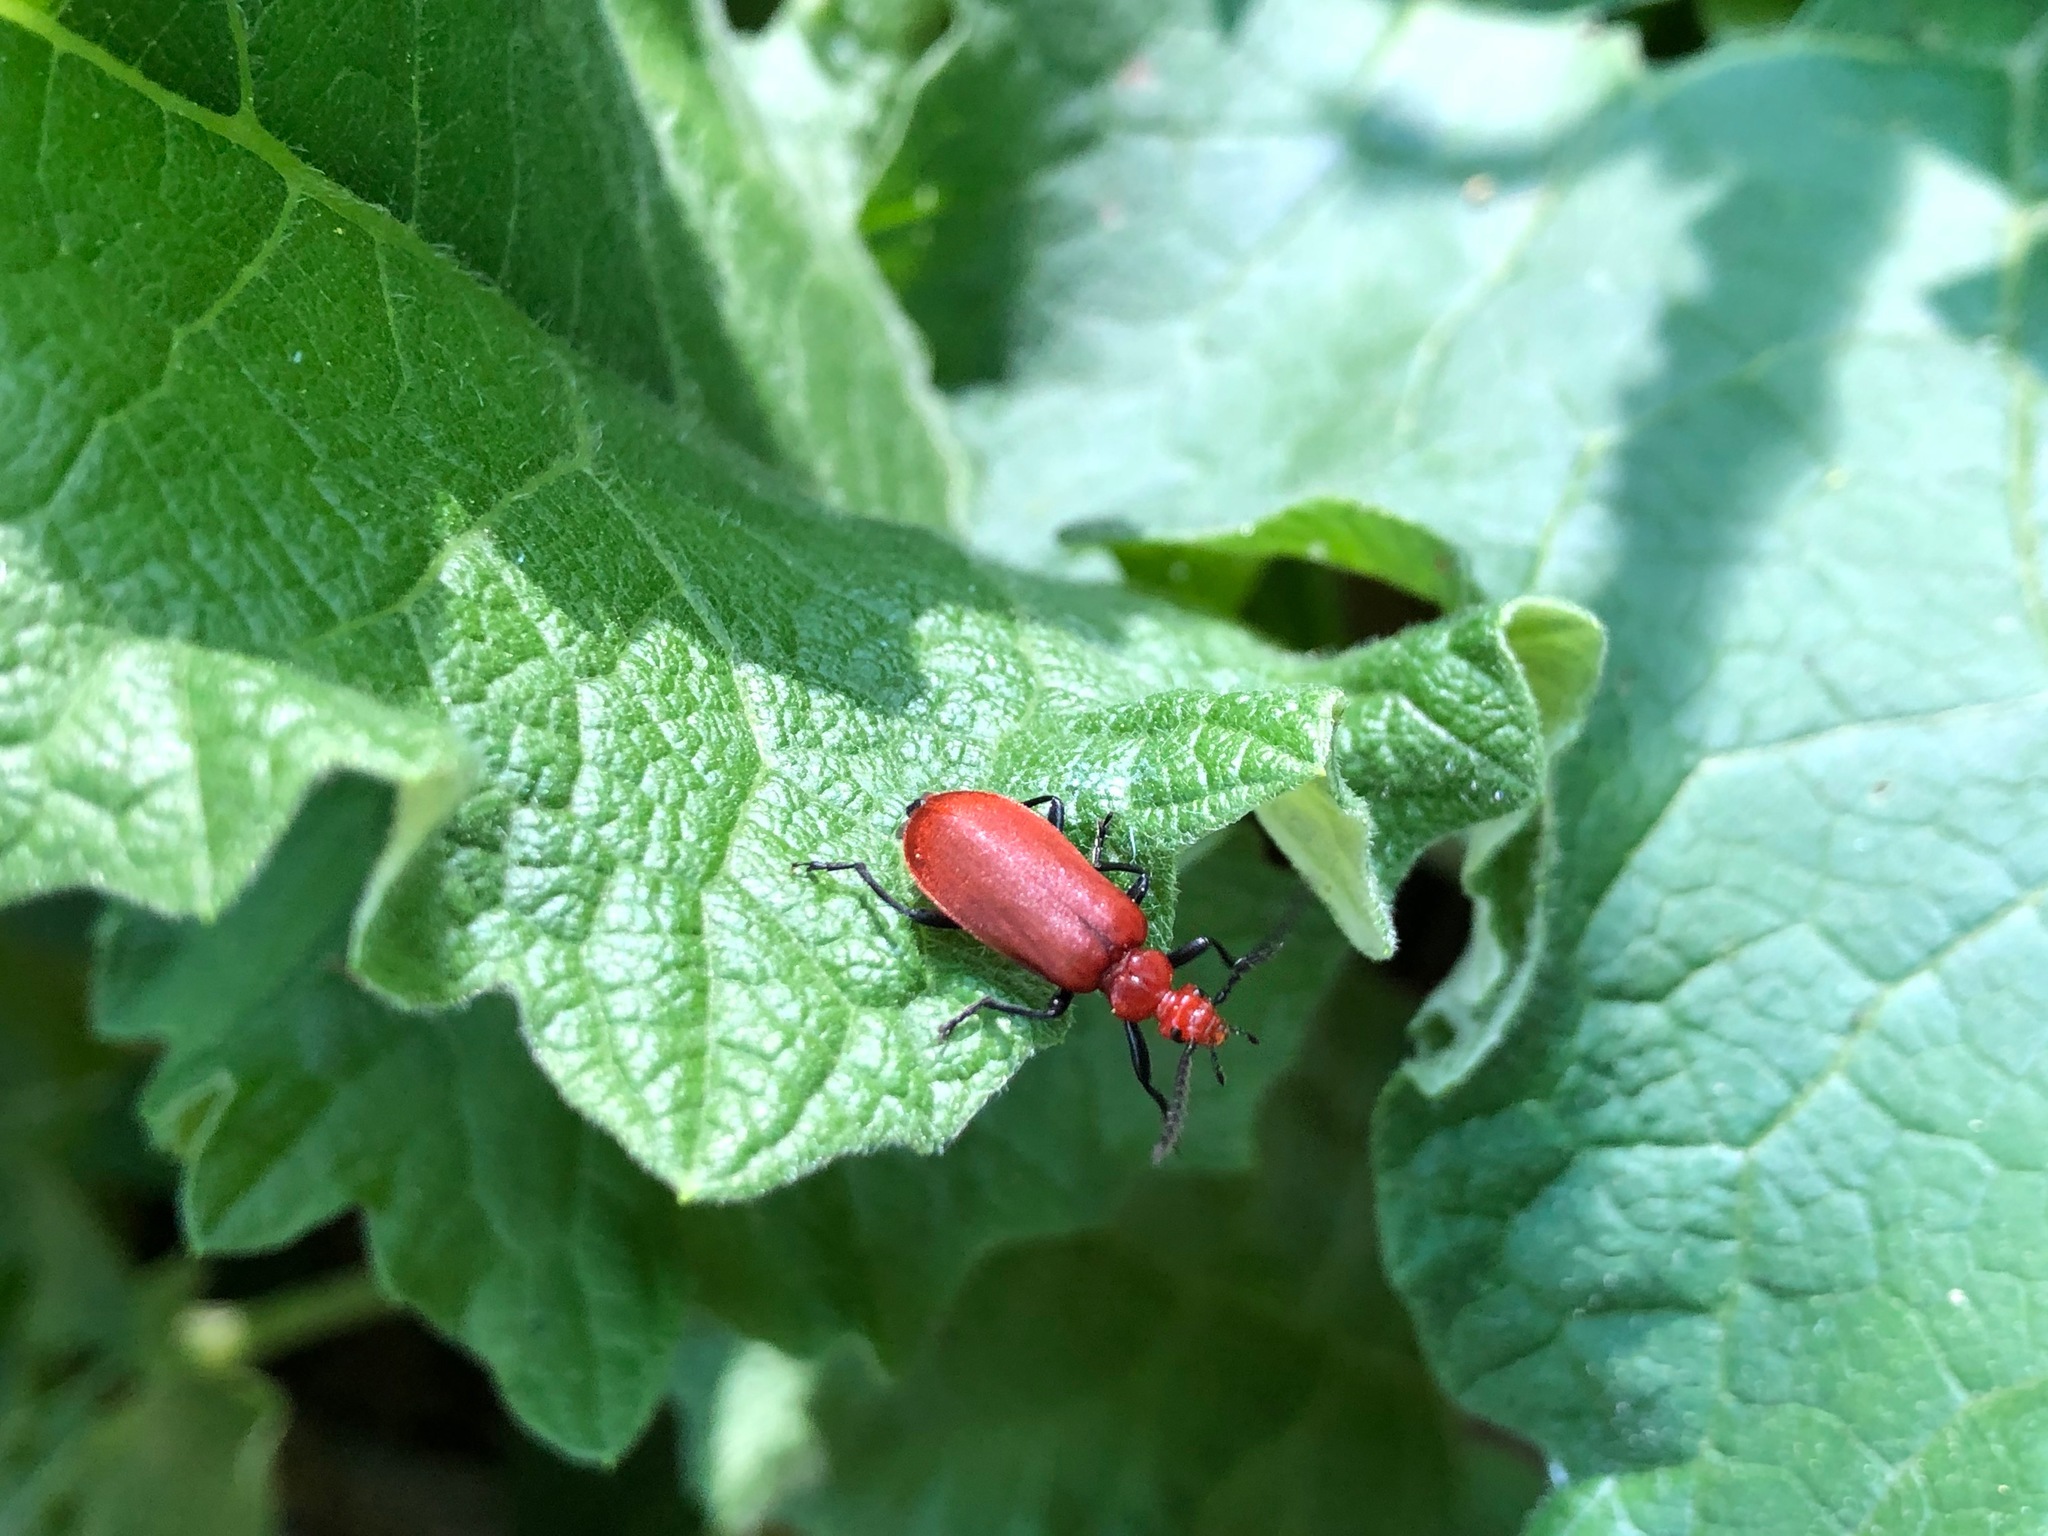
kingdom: Animalia
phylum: Arthropoda
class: Insecta
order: Coleoptera
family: Pyrochroidae
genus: Pyrochroa
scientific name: Pyrochroa serraticornis
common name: Red-headed cardinal beetle
